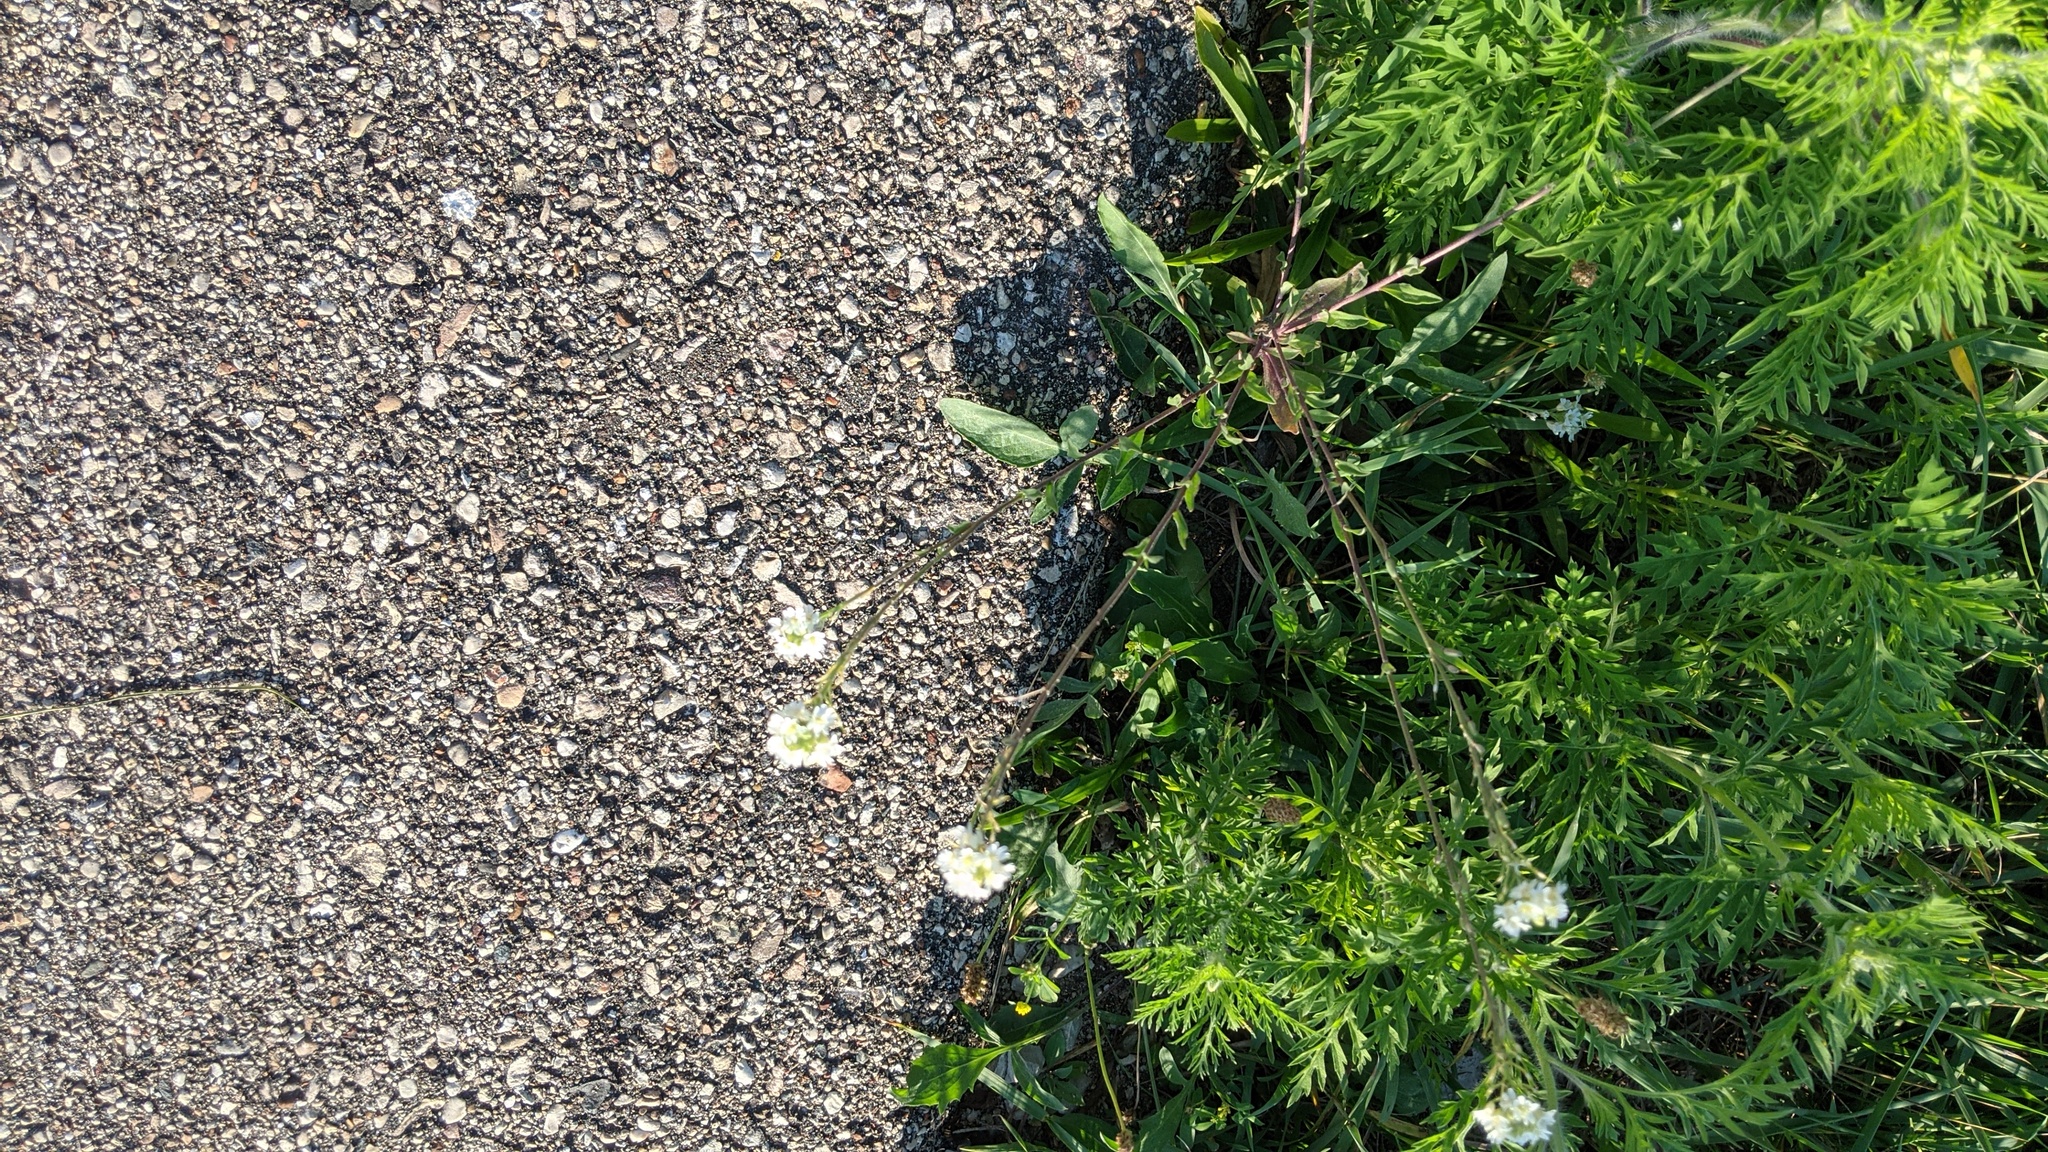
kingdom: Plantae
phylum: Tracheophyta
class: Magnoliopsida
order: Brassicales
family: Brassicaceae
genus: Berteroa
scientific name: Berteroa incana
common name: Hoary alison
